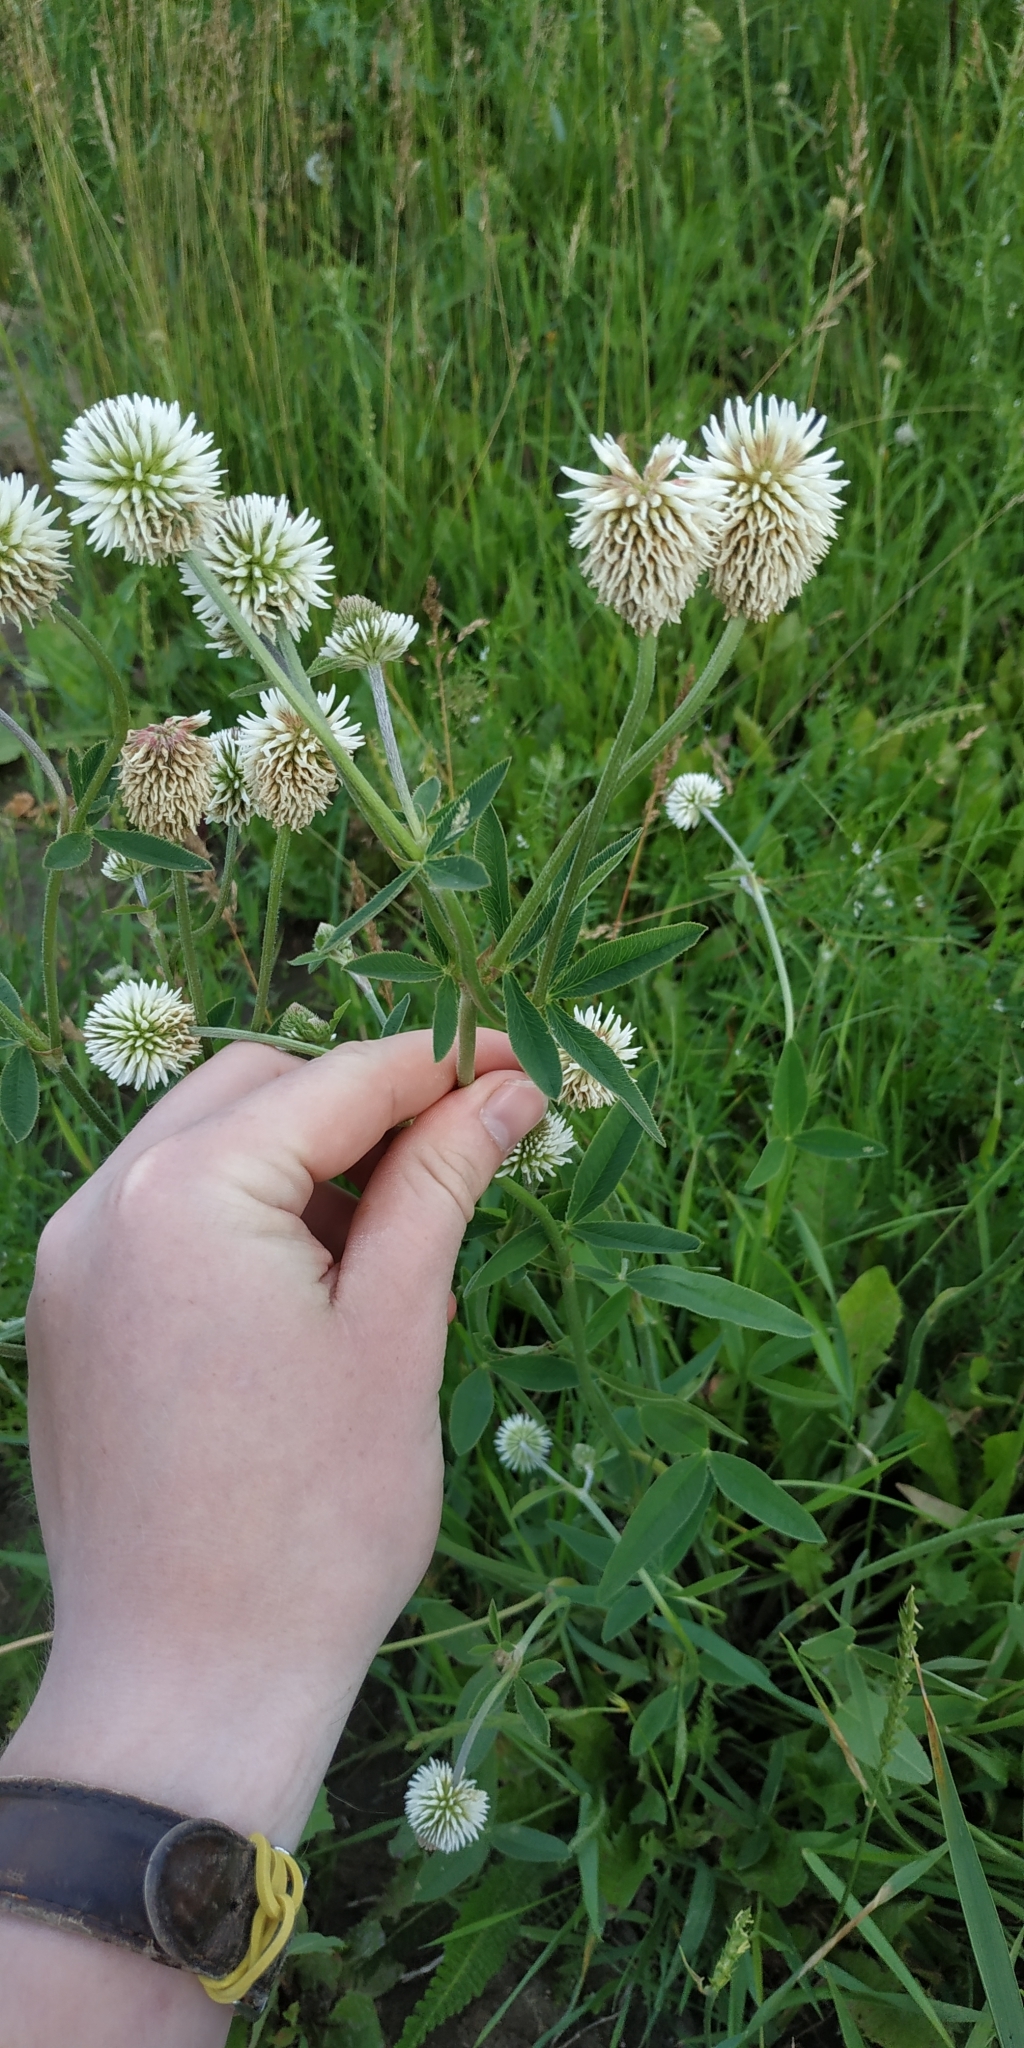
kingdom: Plantae
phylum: Tracheophyta
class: Magnoliopsida
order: Fabales
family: Fabaceae
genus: Trifolium
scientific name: Trifolium montanum
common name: Mountain clover
